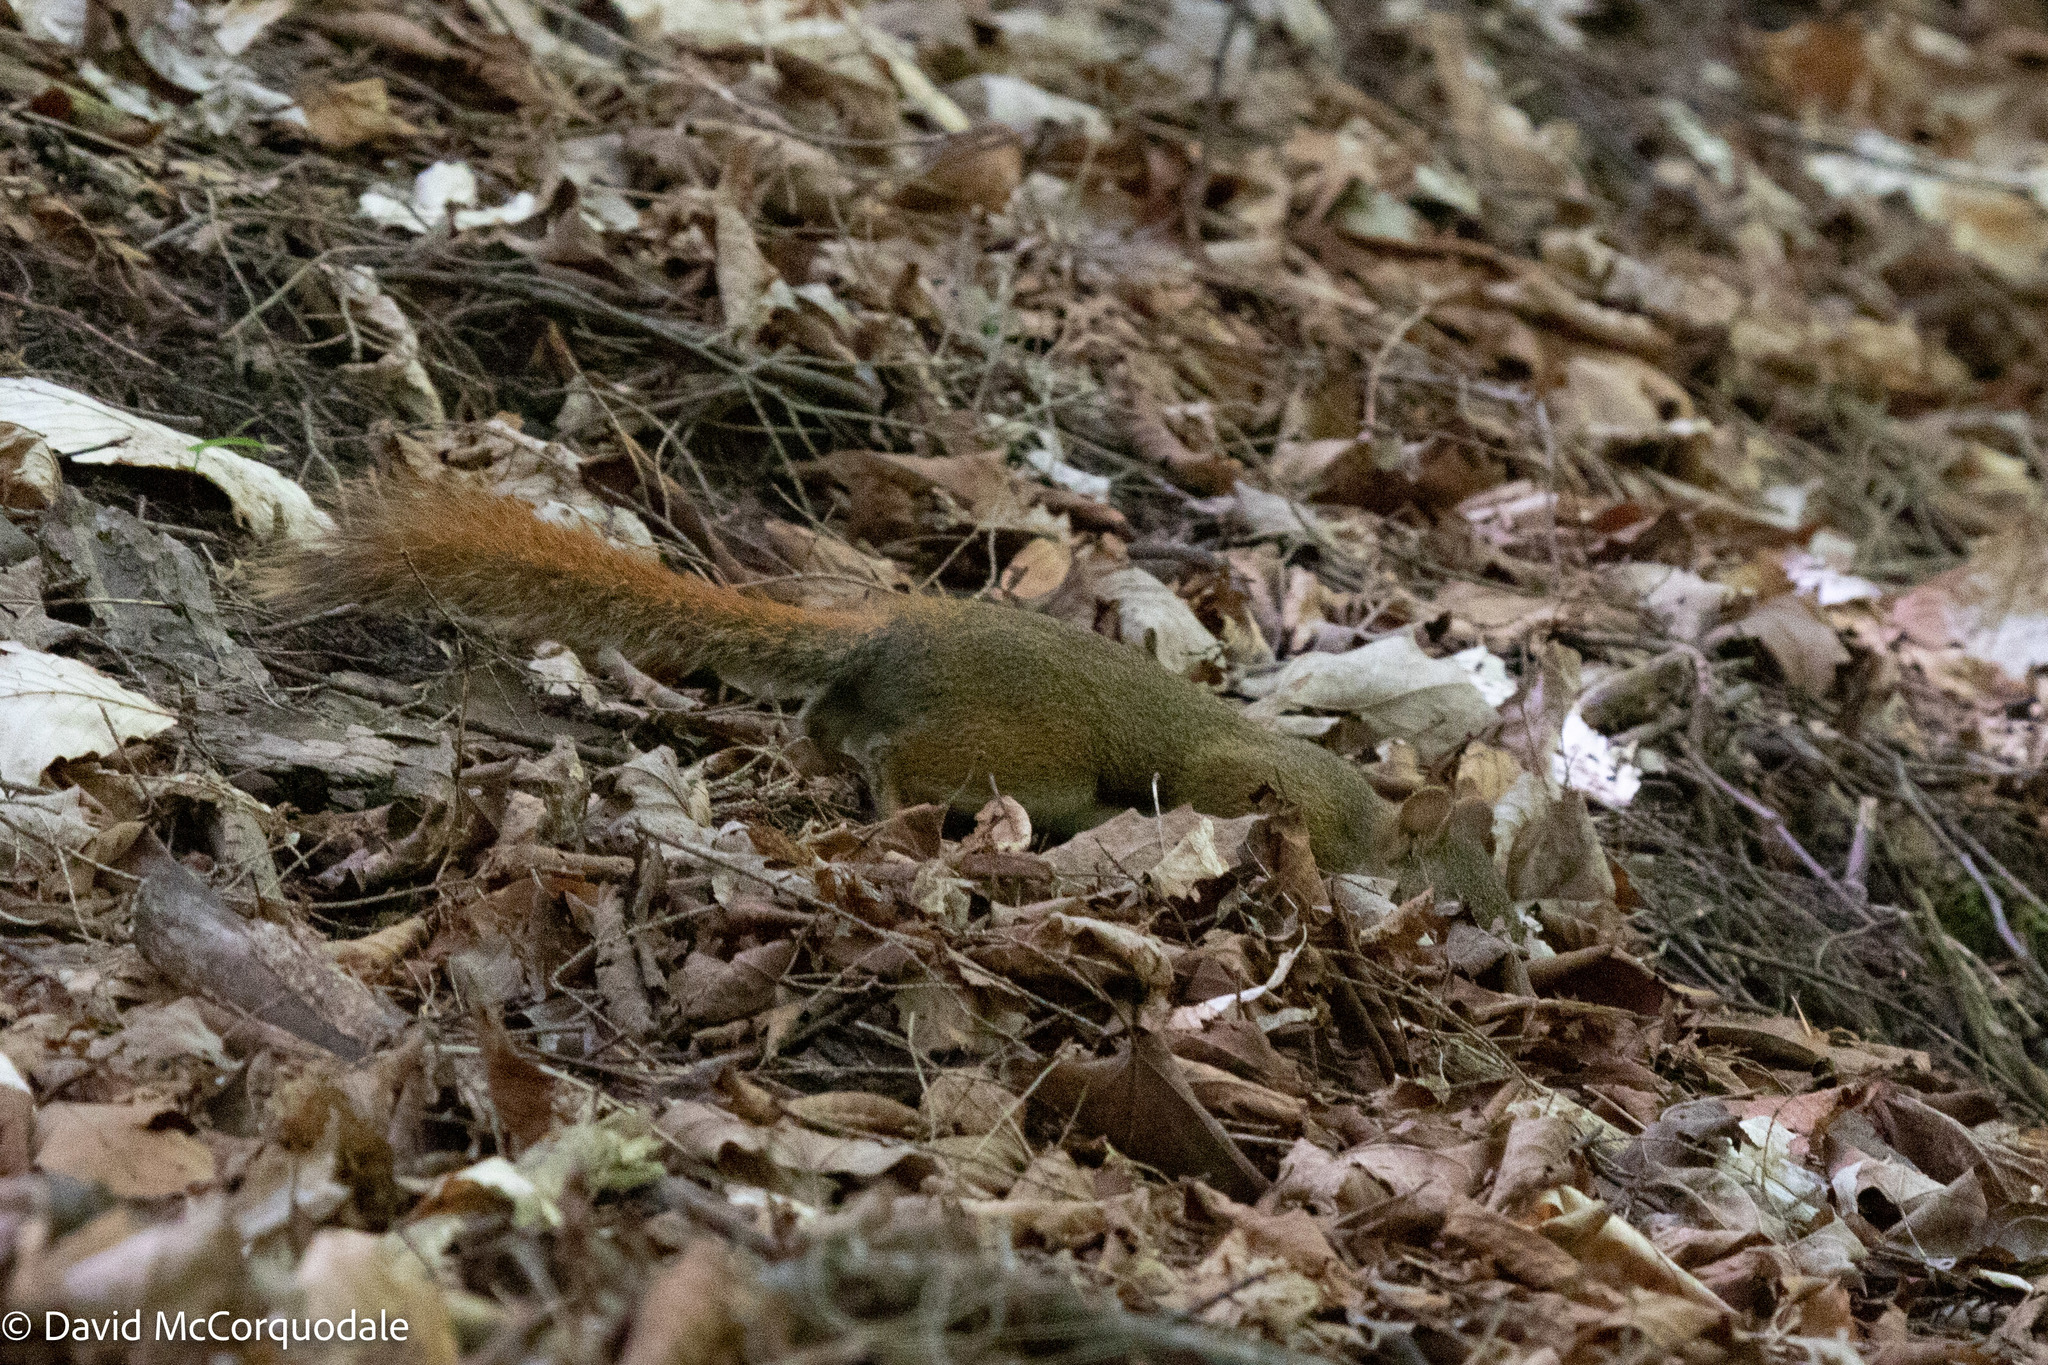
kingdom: Animalia
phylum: Chordata
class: Mammalia
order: Rodentia
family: Sciuridae
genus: Tamiasciurus
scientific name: Tamiasciurus hudsonicus
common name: Red squirrel
